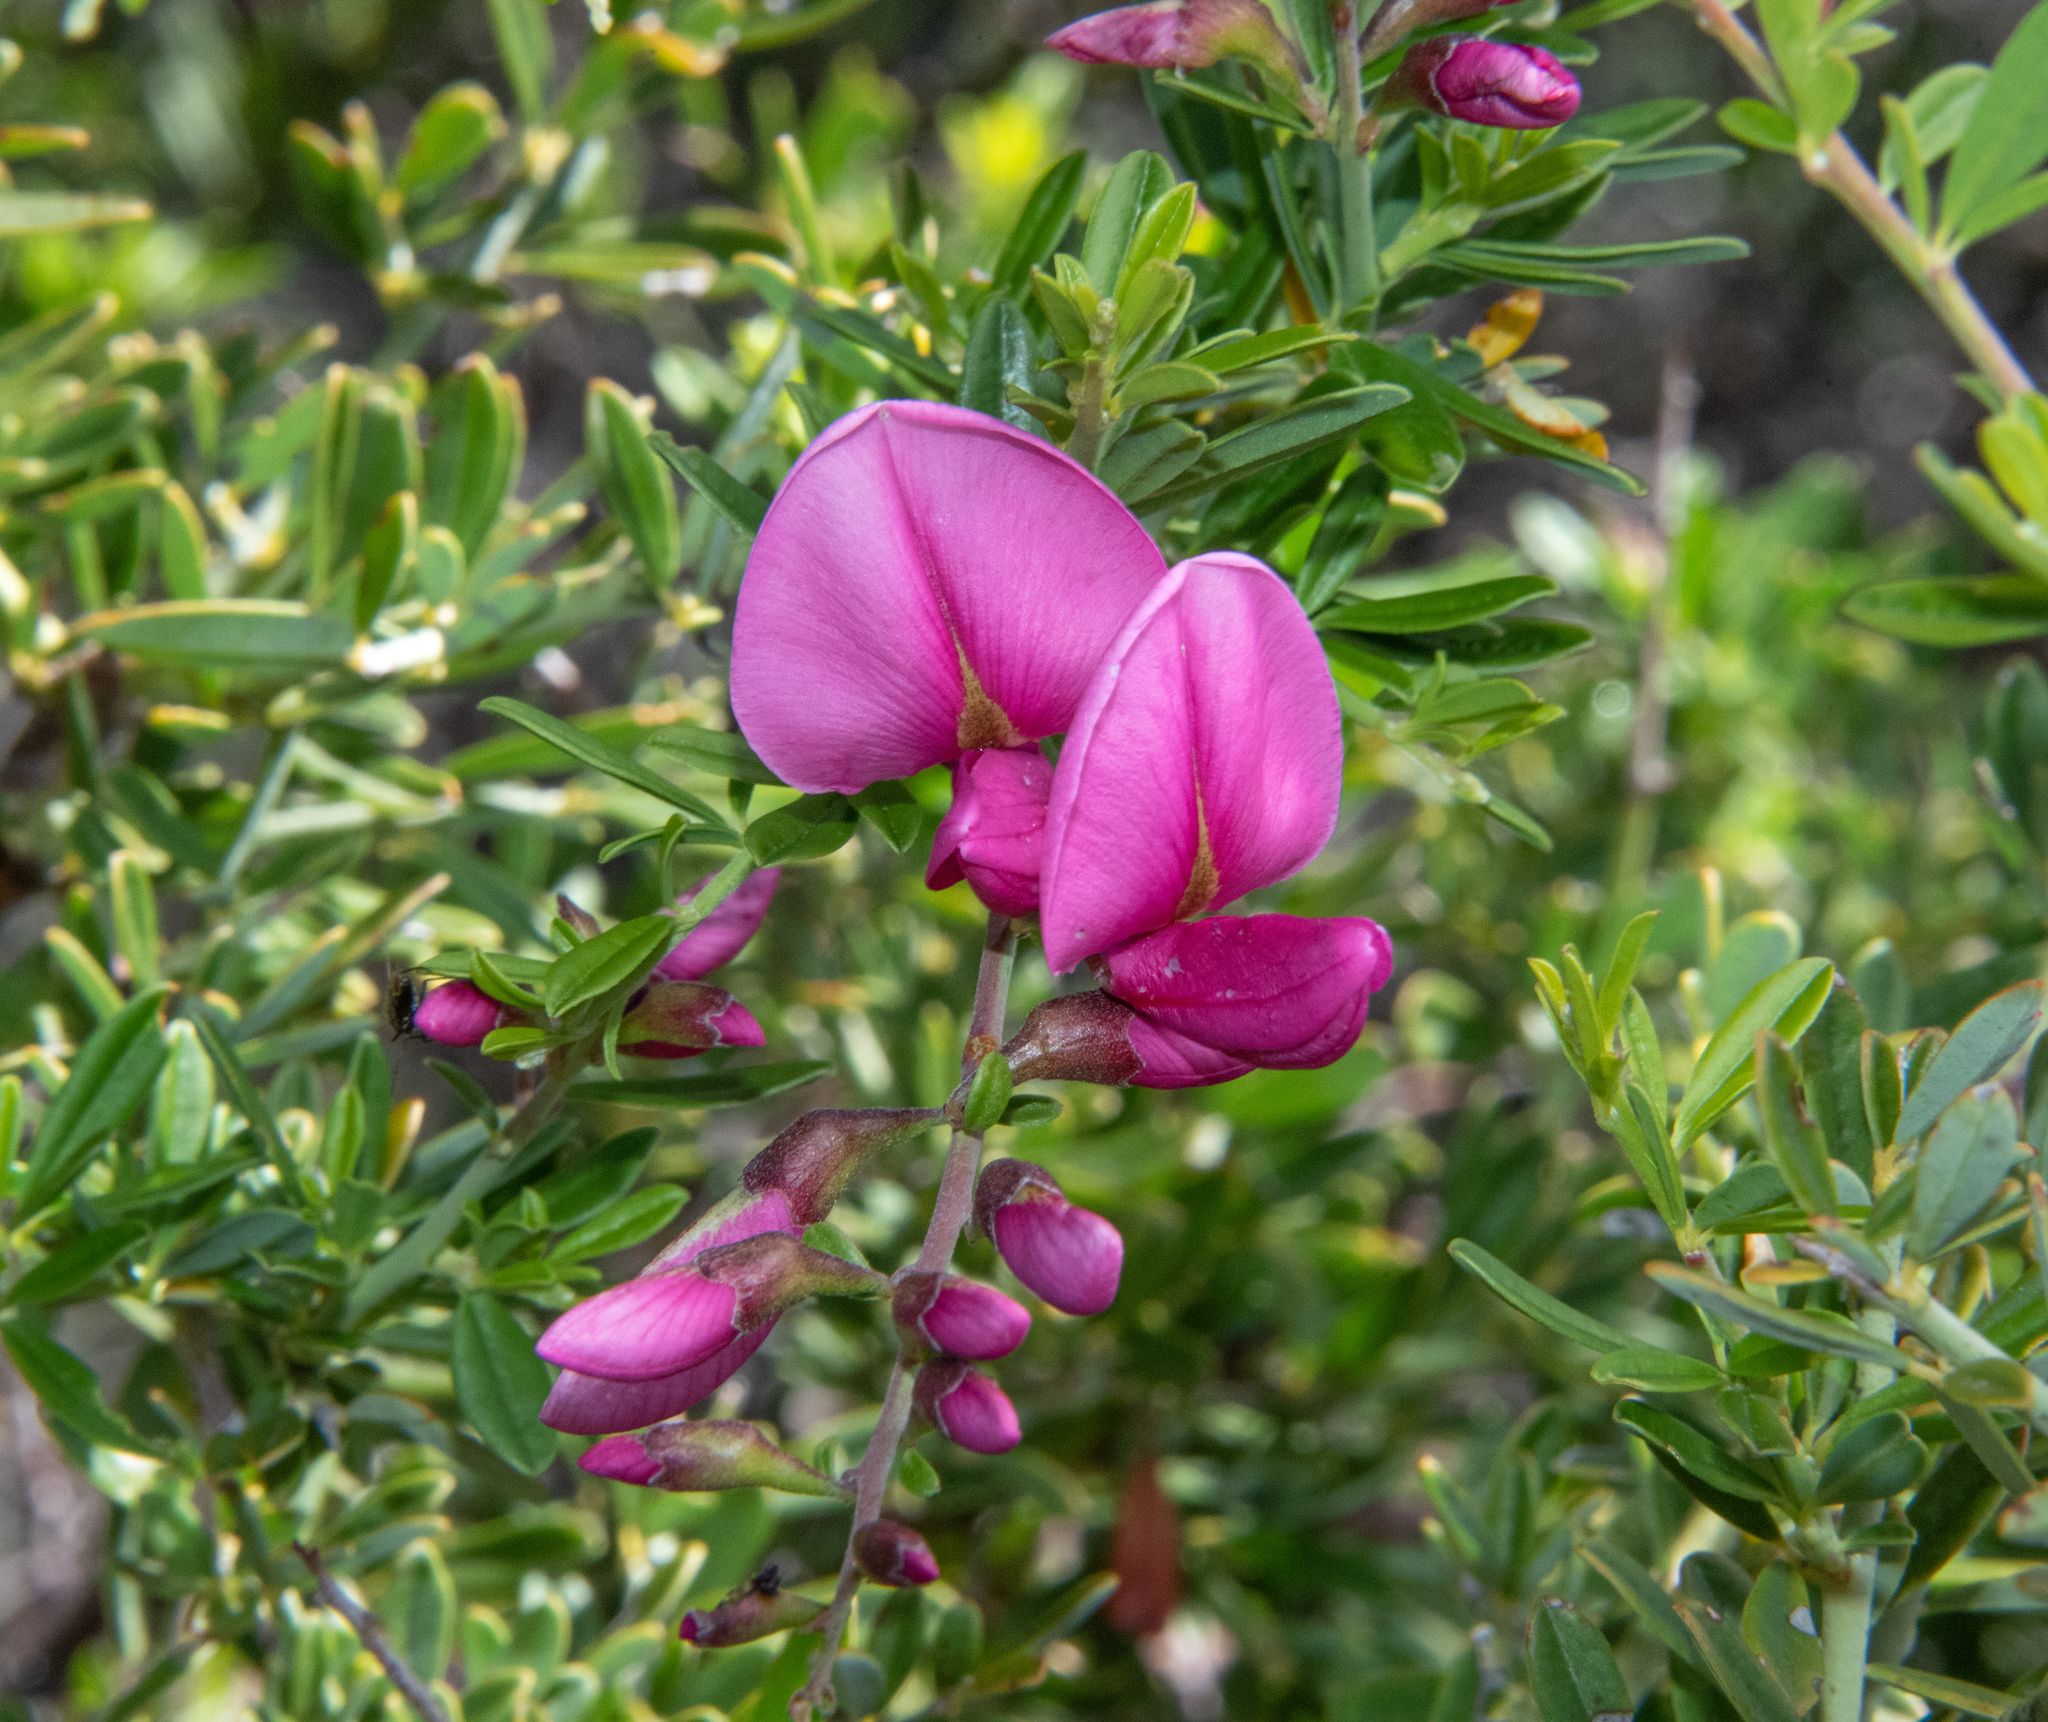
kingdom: Plantae
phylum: Tracheophyta
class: Magnoliopsida
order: Fabales
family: Fabaceae
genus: Pickeringia
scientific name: Pickeringia montana
